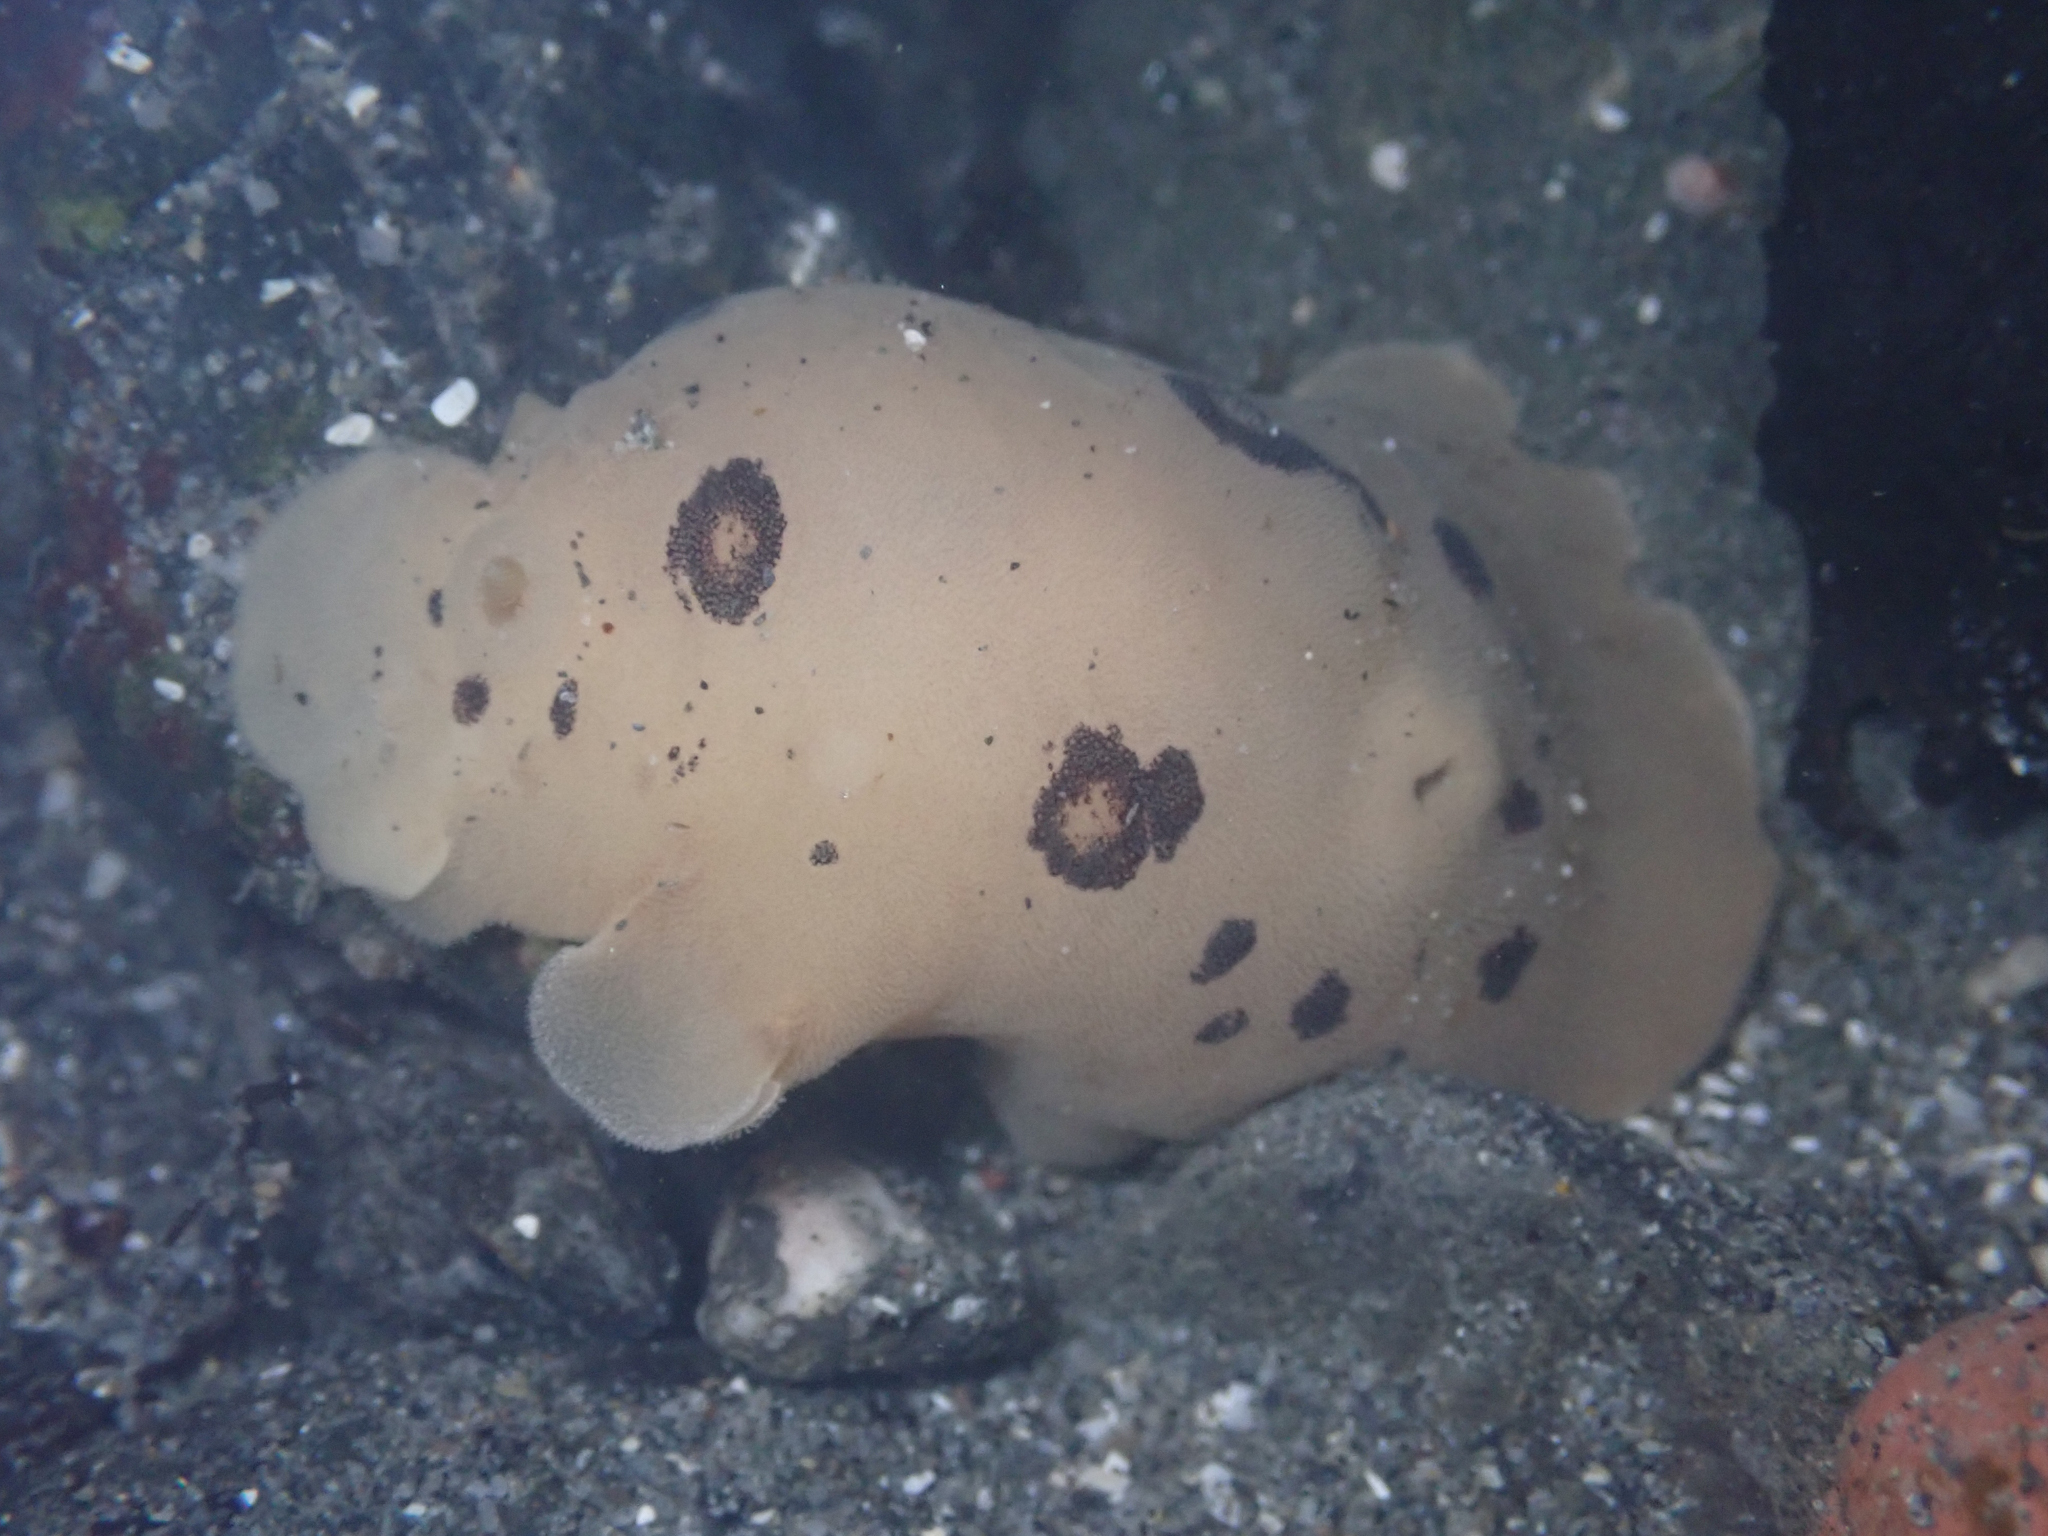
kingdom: Animalia
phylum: Mollusca
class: Gastropoda
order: Nudibranchia
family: Discodorididae
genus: Diaulula
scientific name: Diaulula sandiegensis
